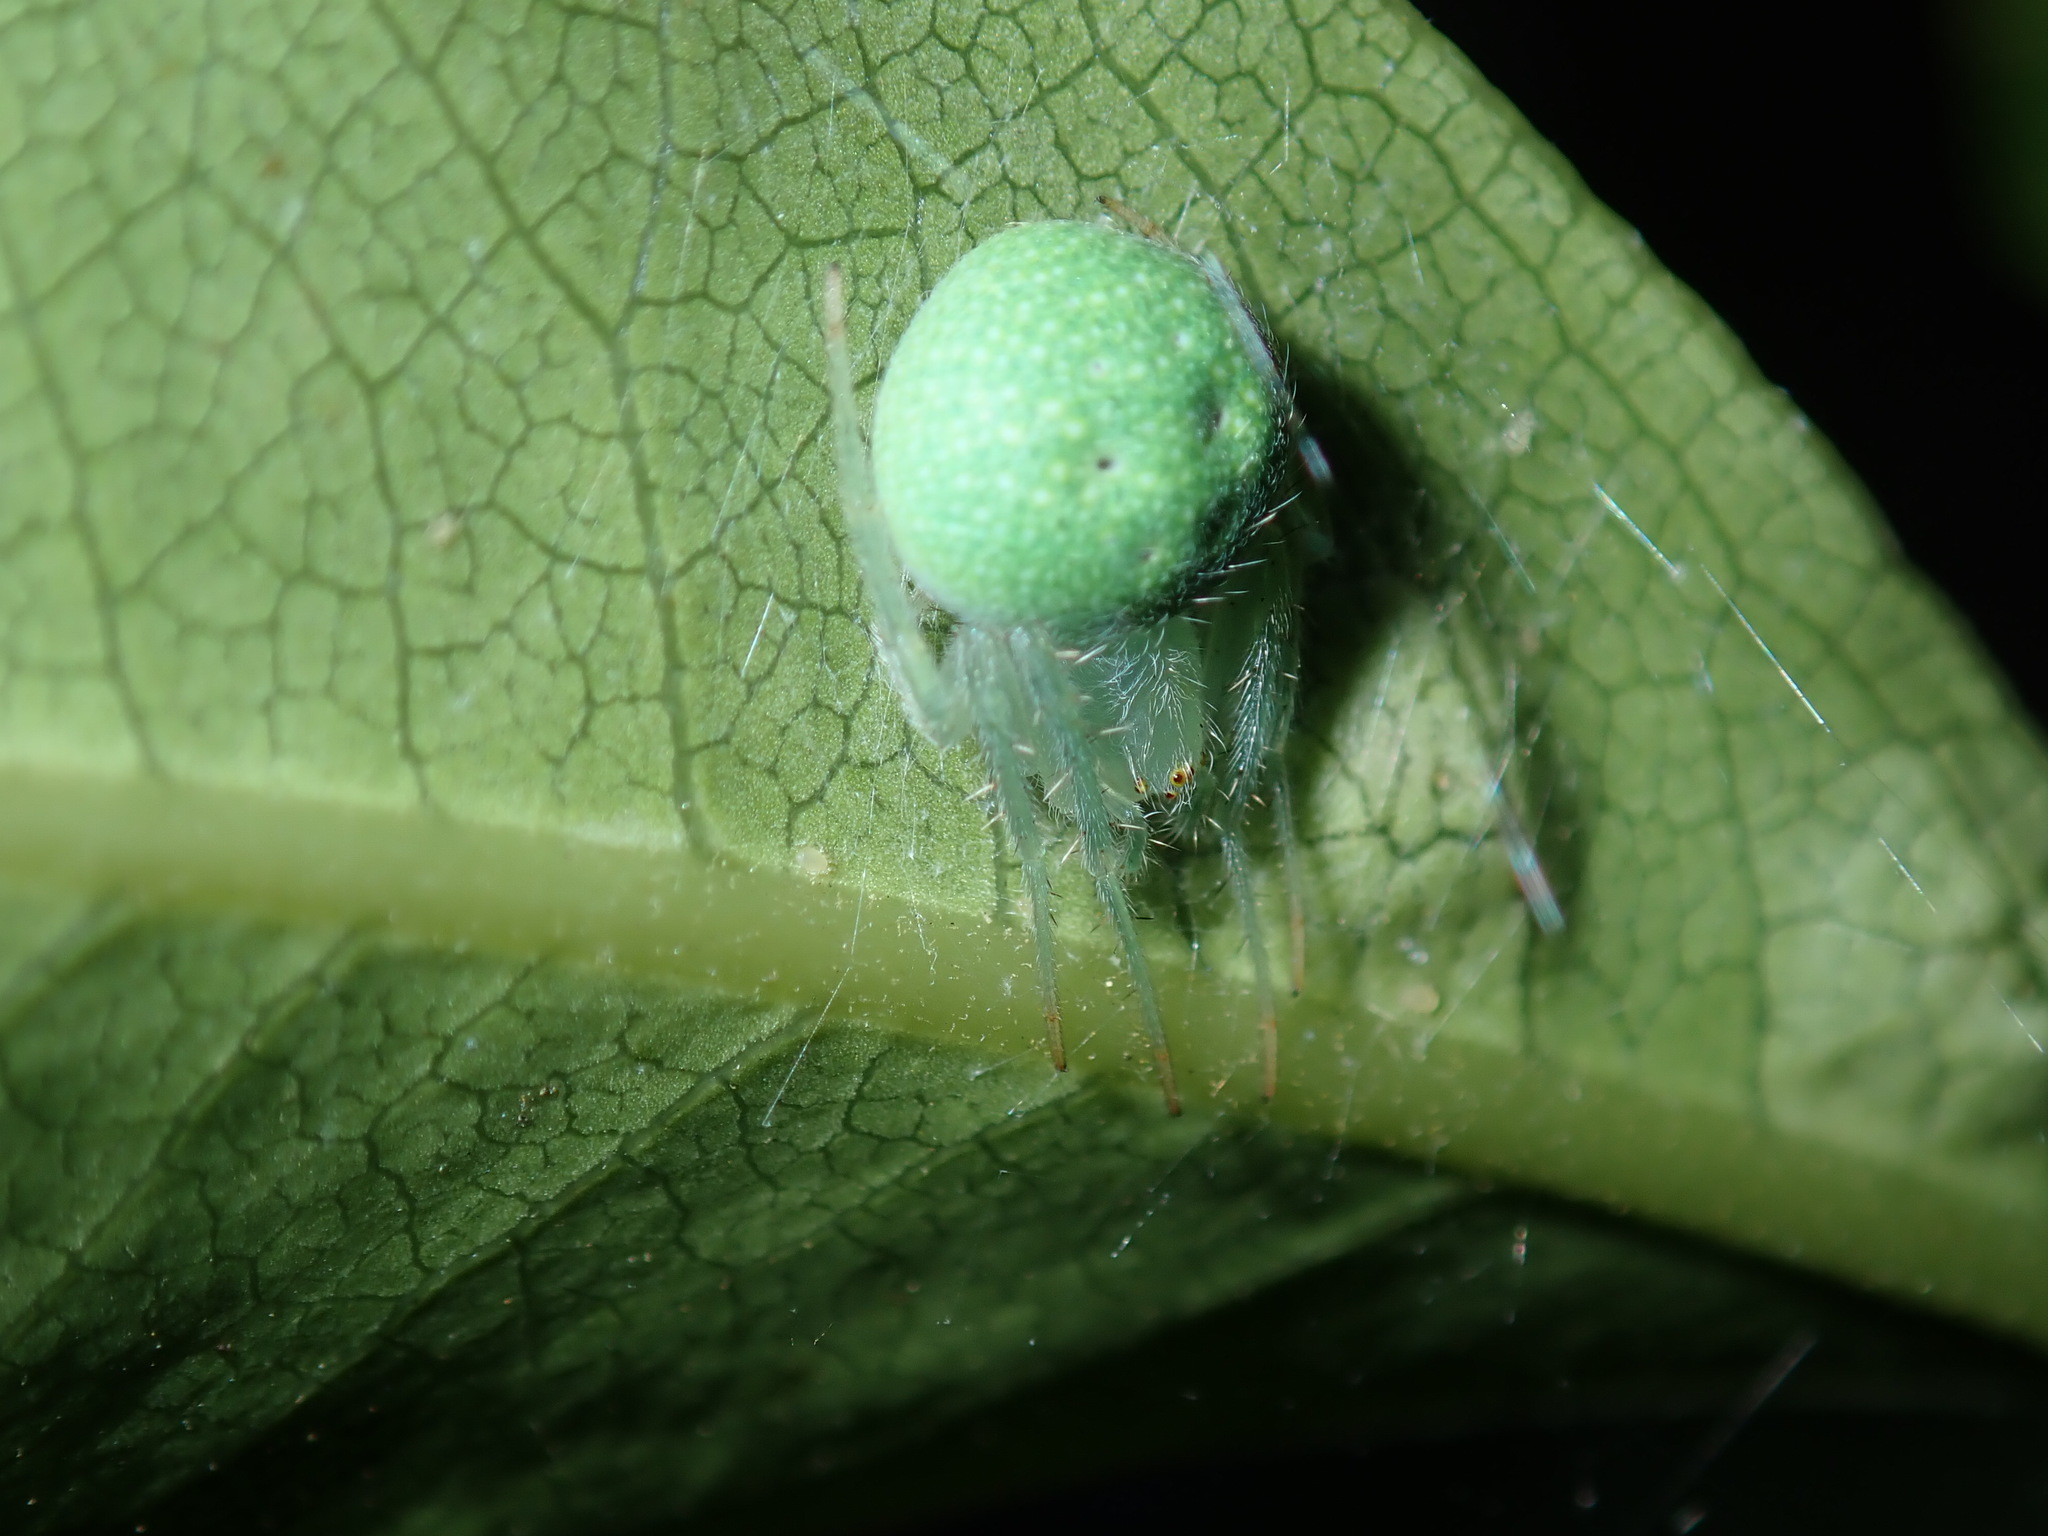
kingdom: Animalia
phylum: Arthropoda
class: Arachnida
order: Araneae
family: Araneidae
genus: Araneus
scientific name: Araneus circulissparsus
